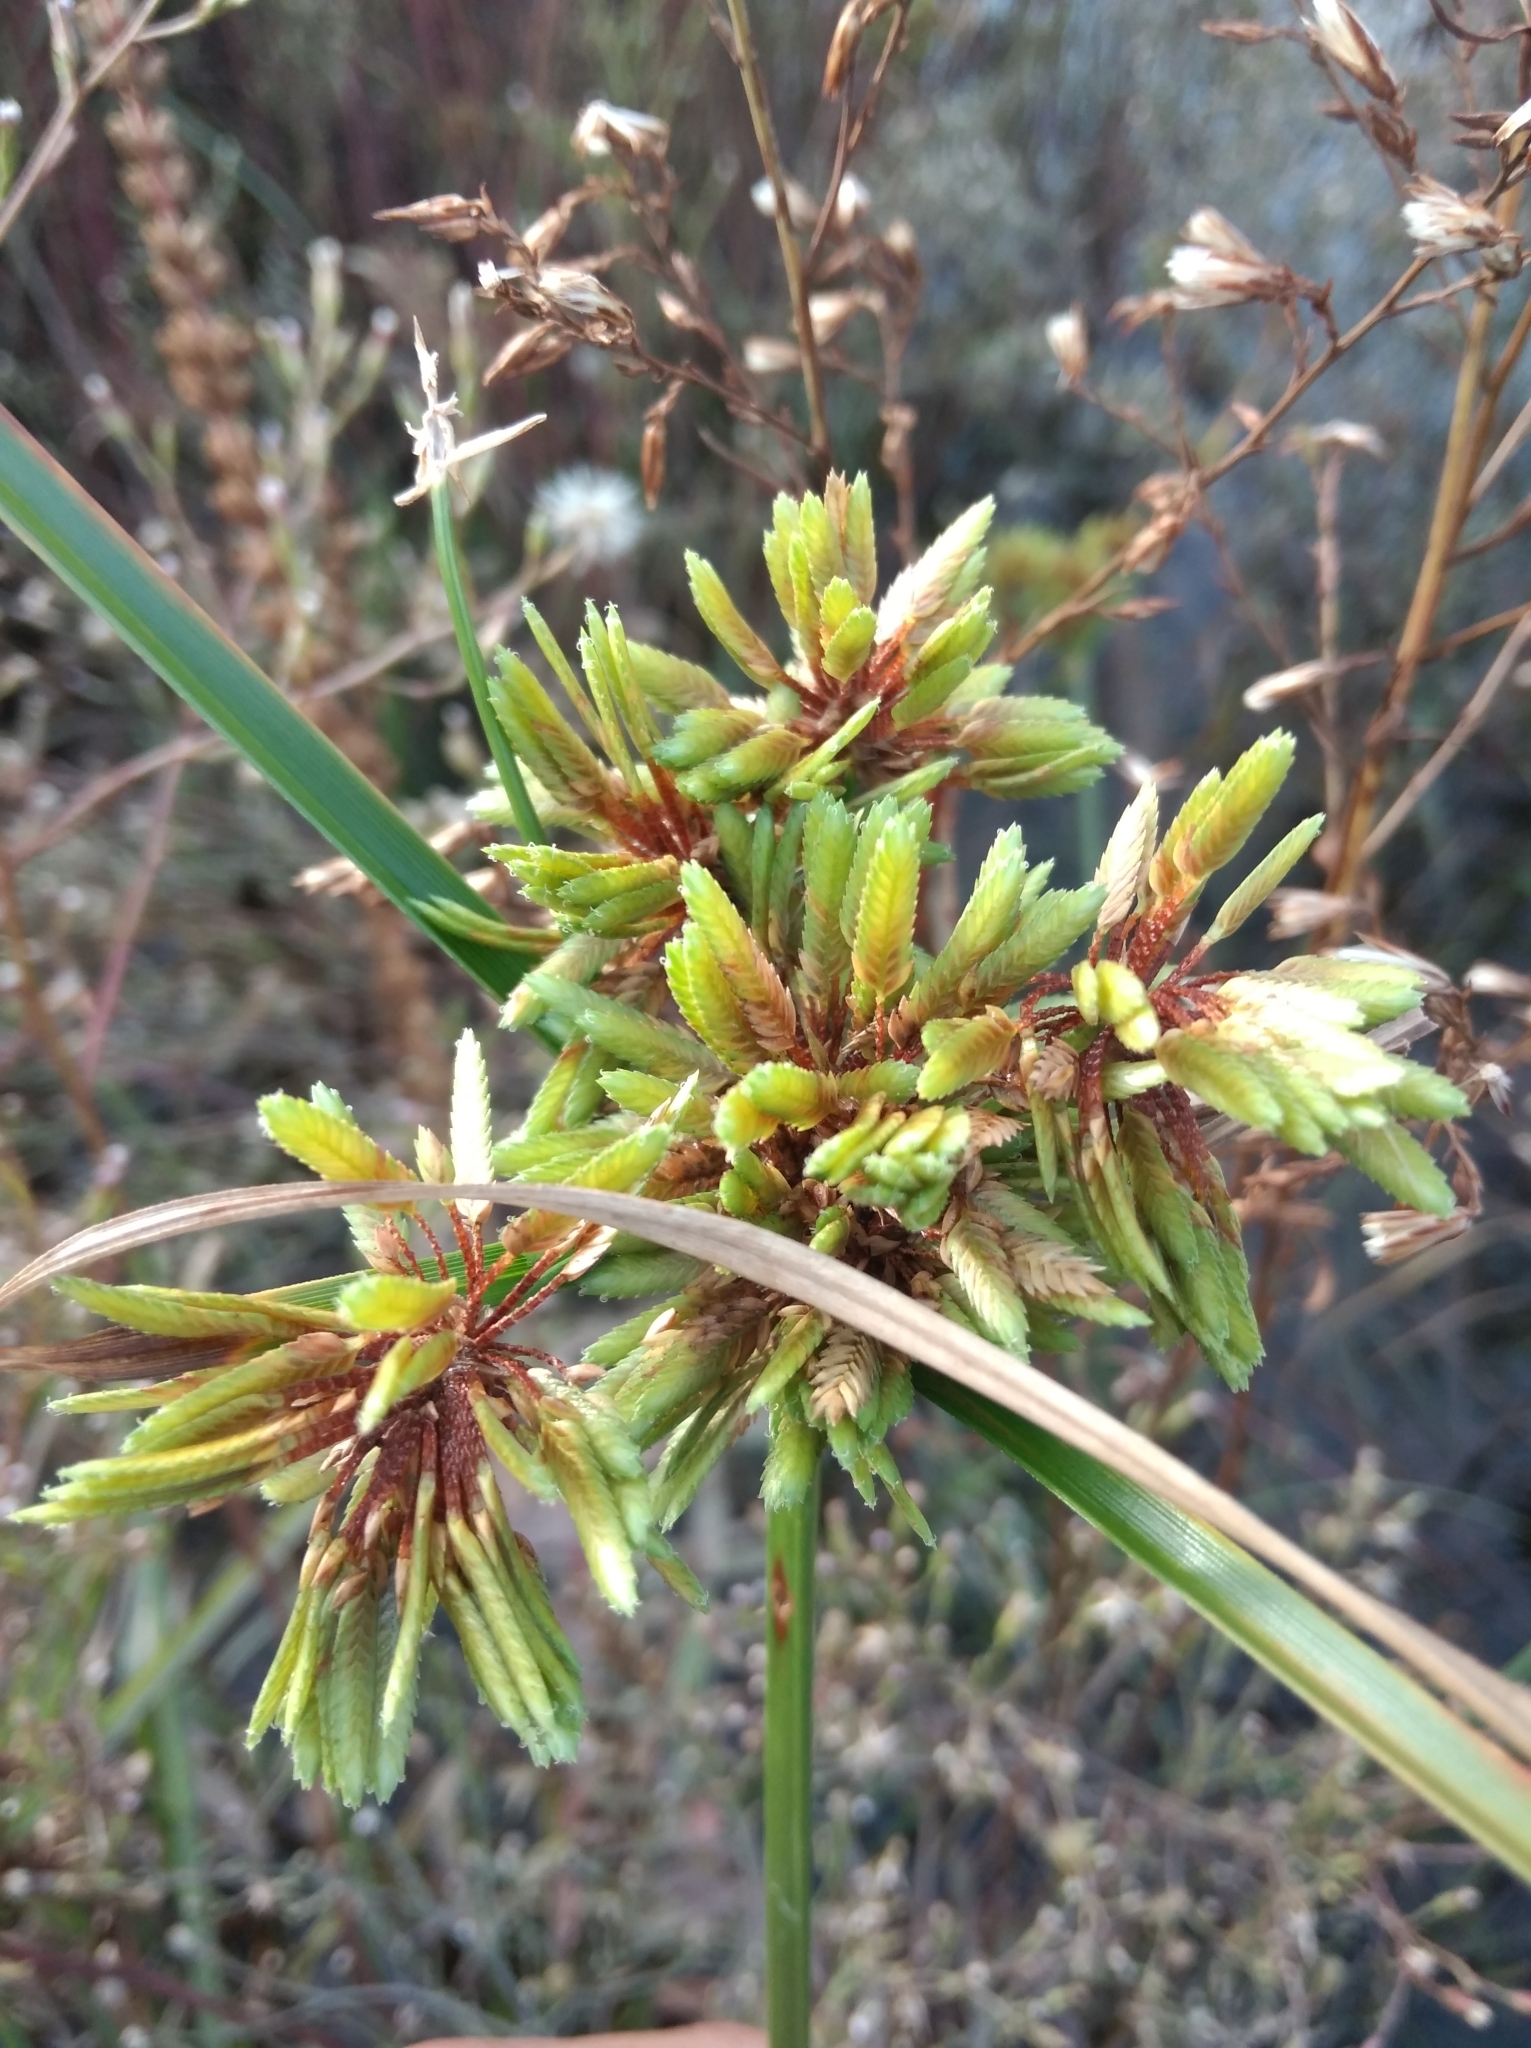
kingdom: Plantae
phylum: Tracheophyta
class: Liliopsida
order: Poales
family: Cyperaceae
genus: Cyperus
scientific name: Cyperus eragrostis
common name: Tall flatsedge
